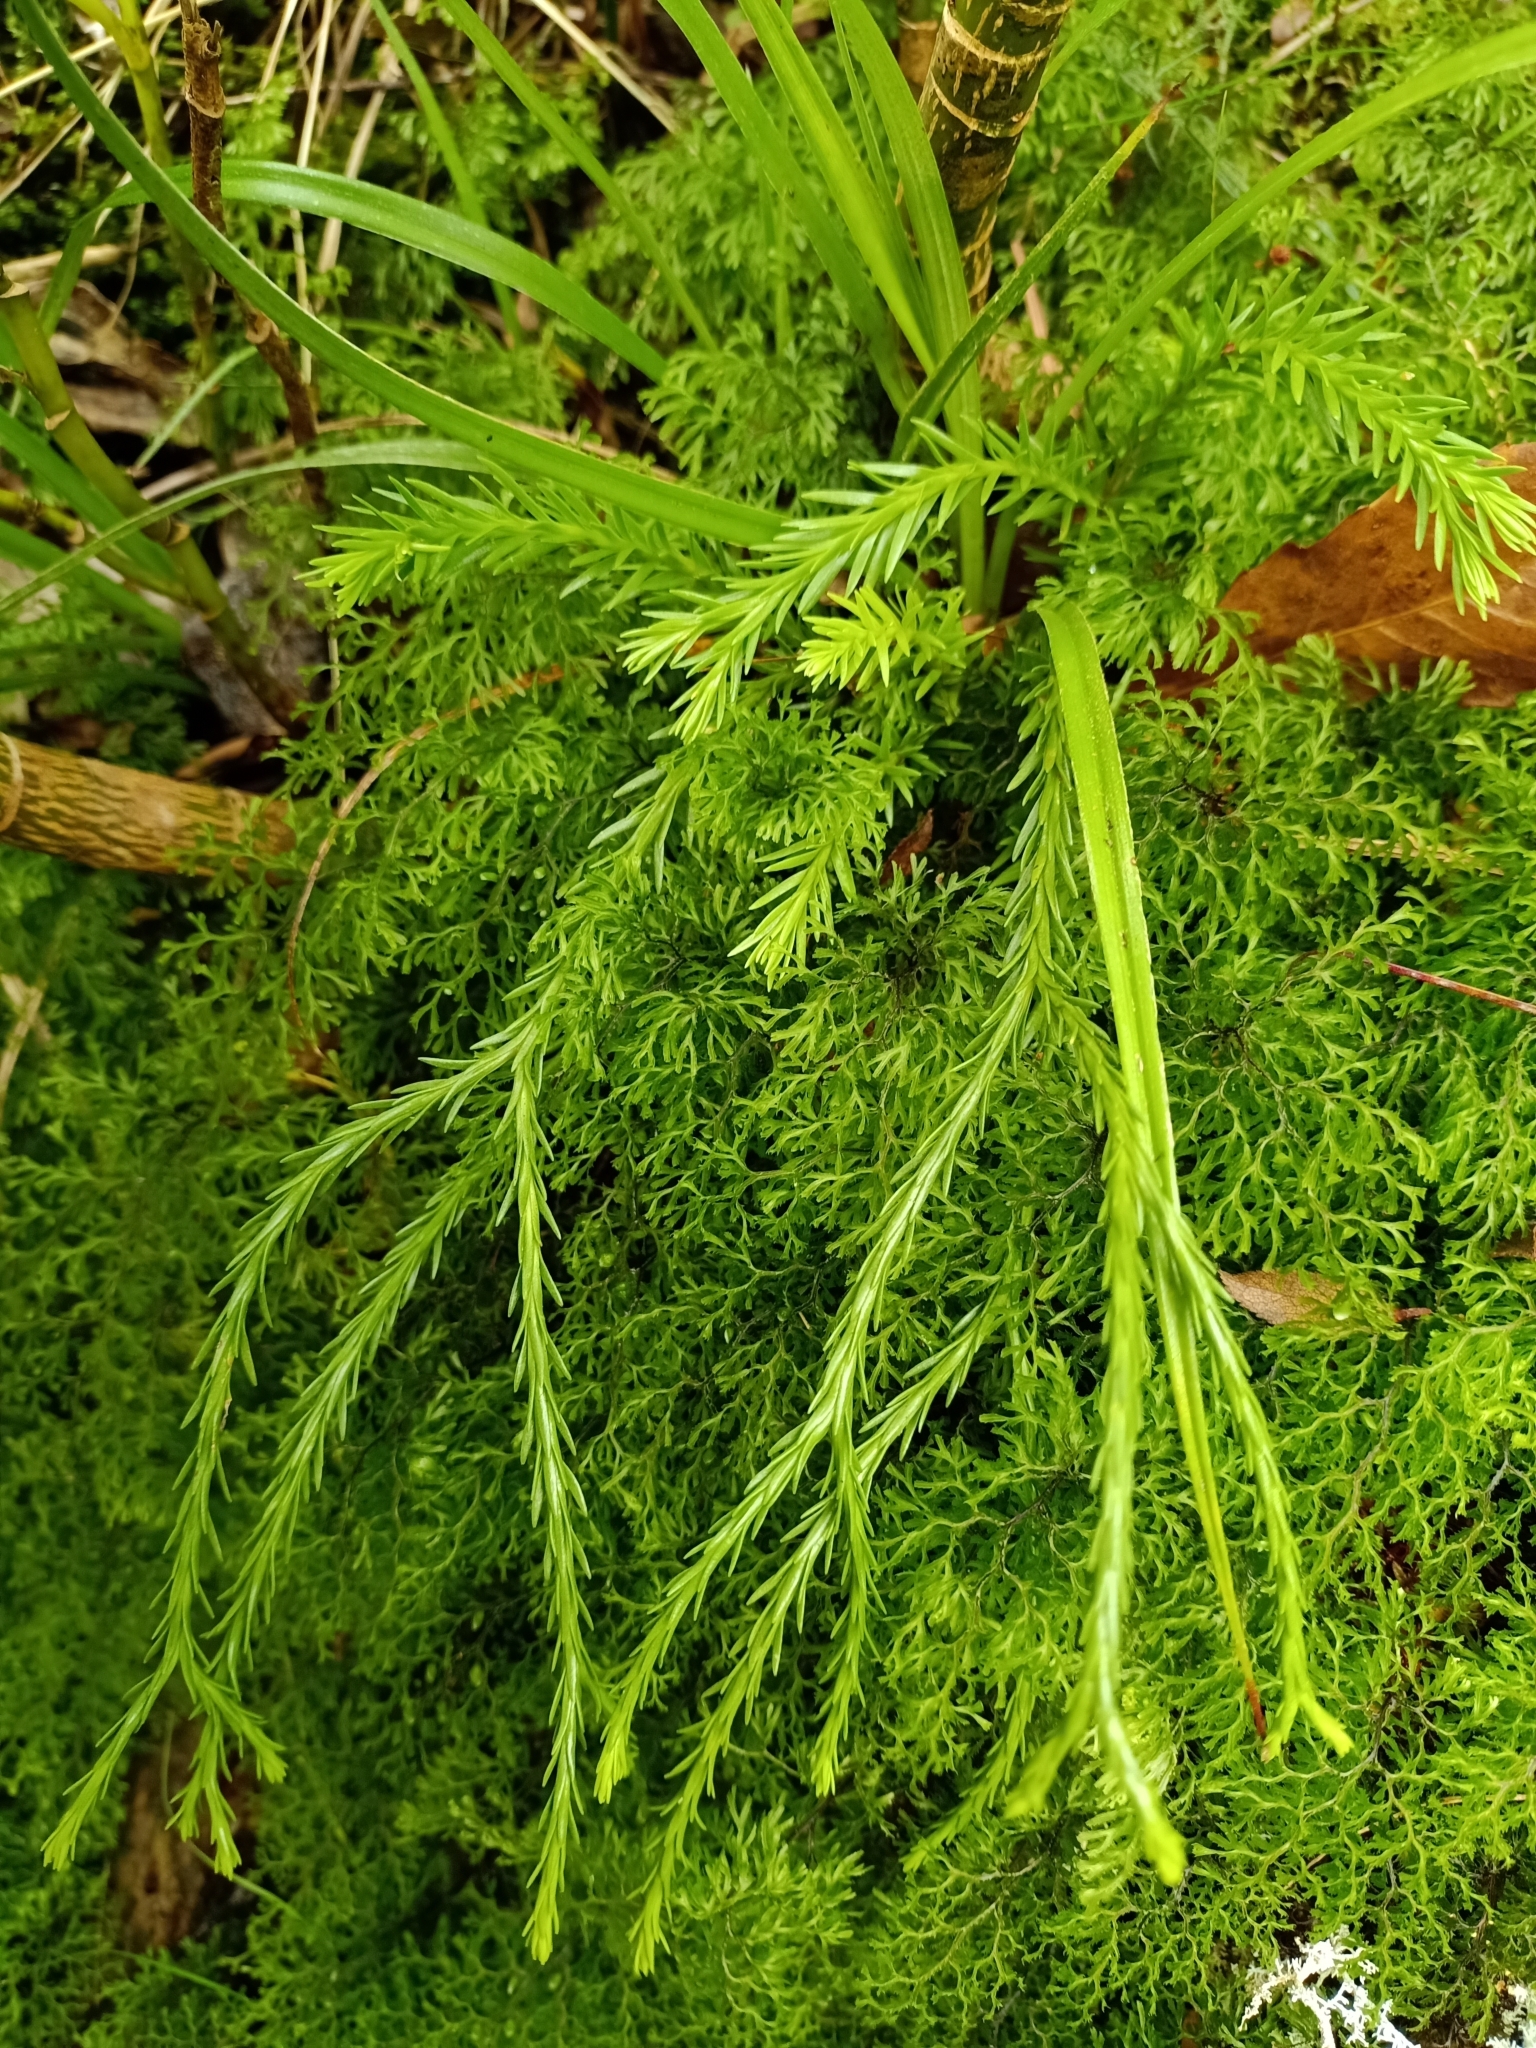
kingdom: Plantae
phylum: Tracheophyta
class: Lycopodiopsida
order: Lycopodiales
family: Lycopodiaceae
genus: Phlegmariurus
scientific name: Phlegmariurus billardierei
